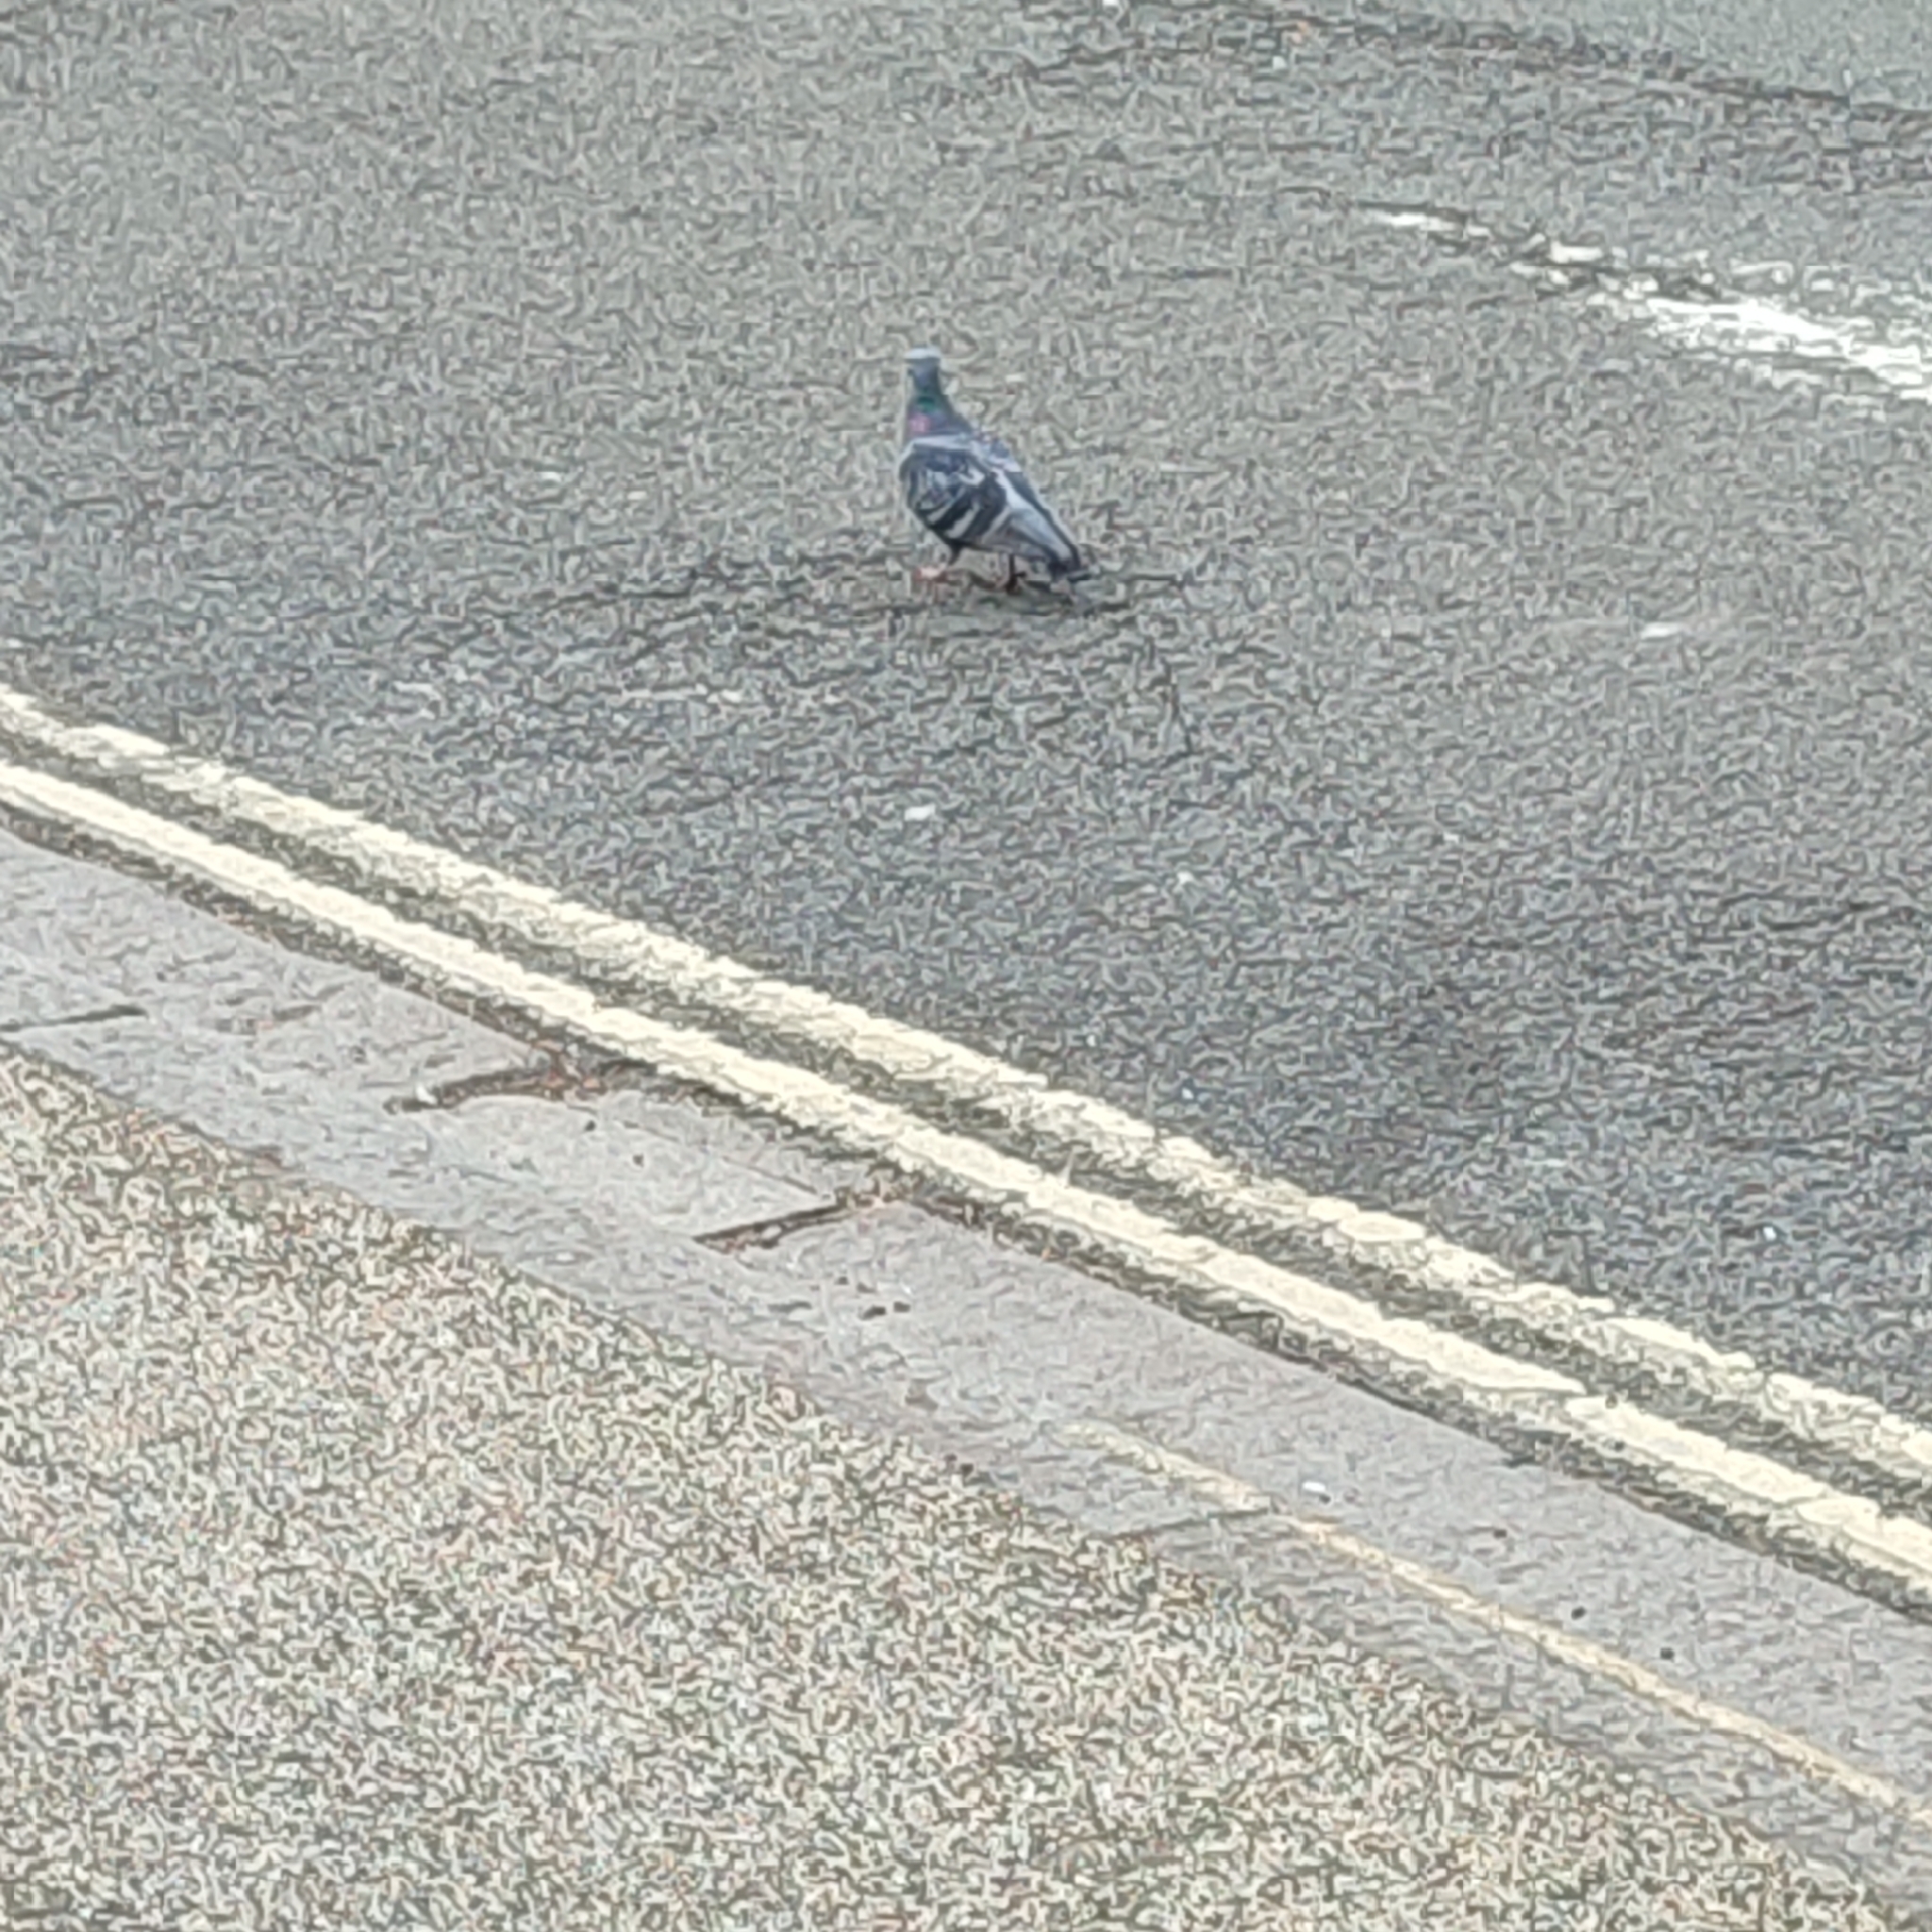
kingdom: Animalia
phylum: Chordata
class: Aves
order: Columbiformes
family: Columbidae
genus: Columba
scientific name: Columba livia
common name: Rock pigeon
